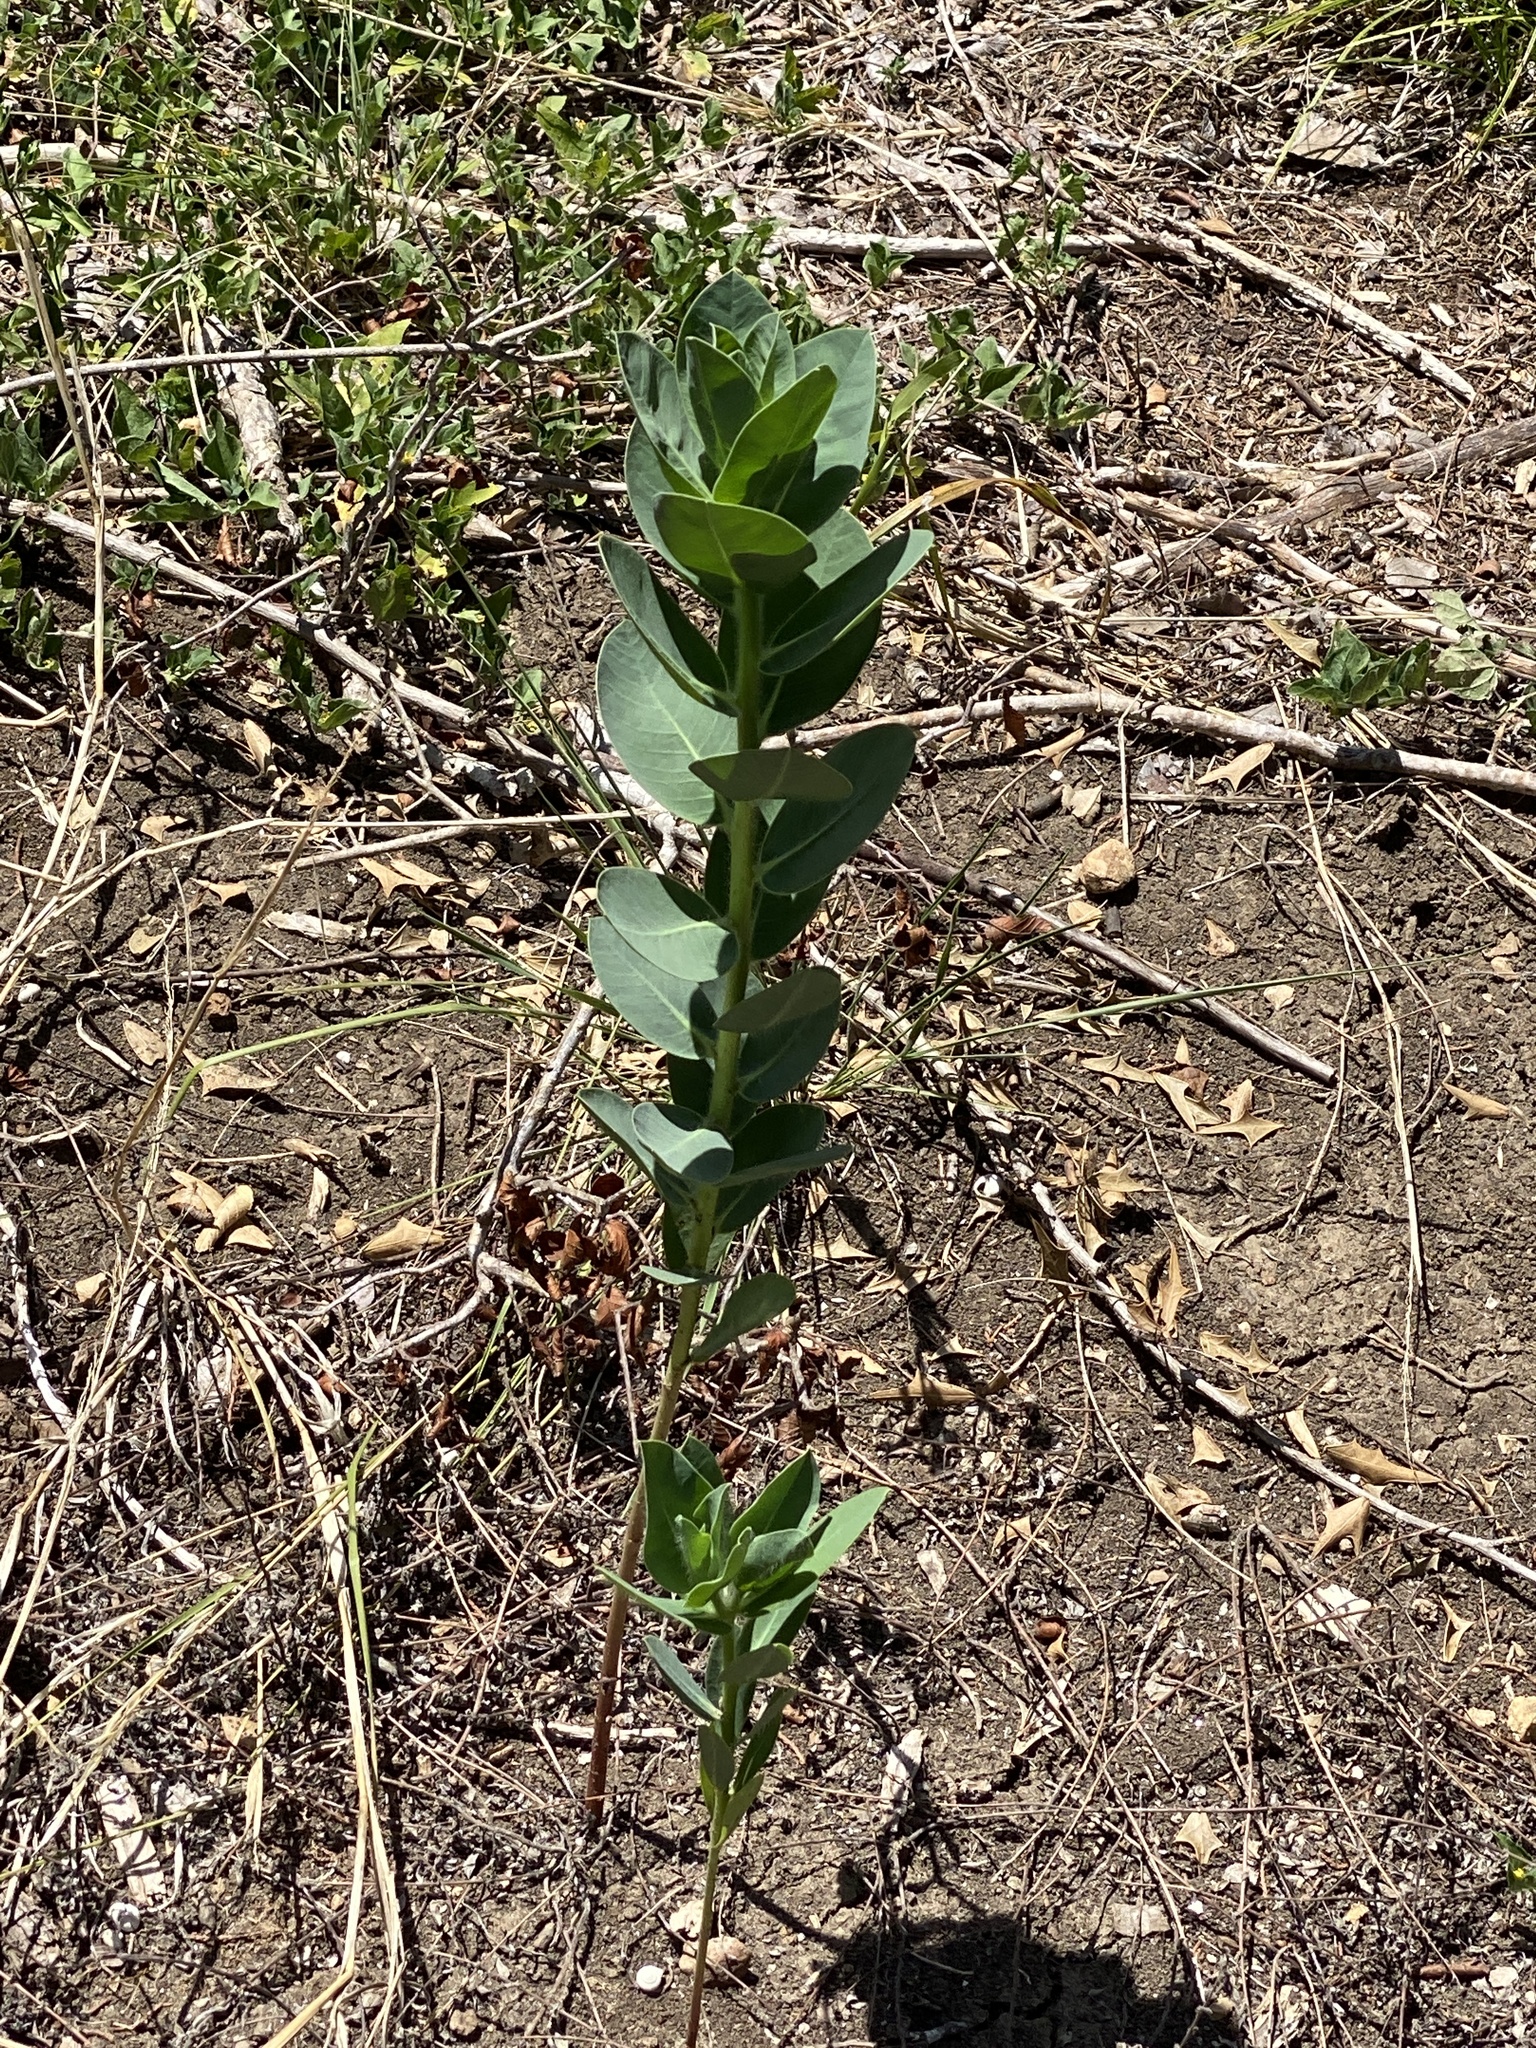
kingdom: Plantae
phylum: Tracheophyta
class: Magnoliopsida
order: Malpighiales
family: Euphorbiaceae
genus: Euphorbia
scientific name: Euphorbia marginata
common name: Ghostweed
